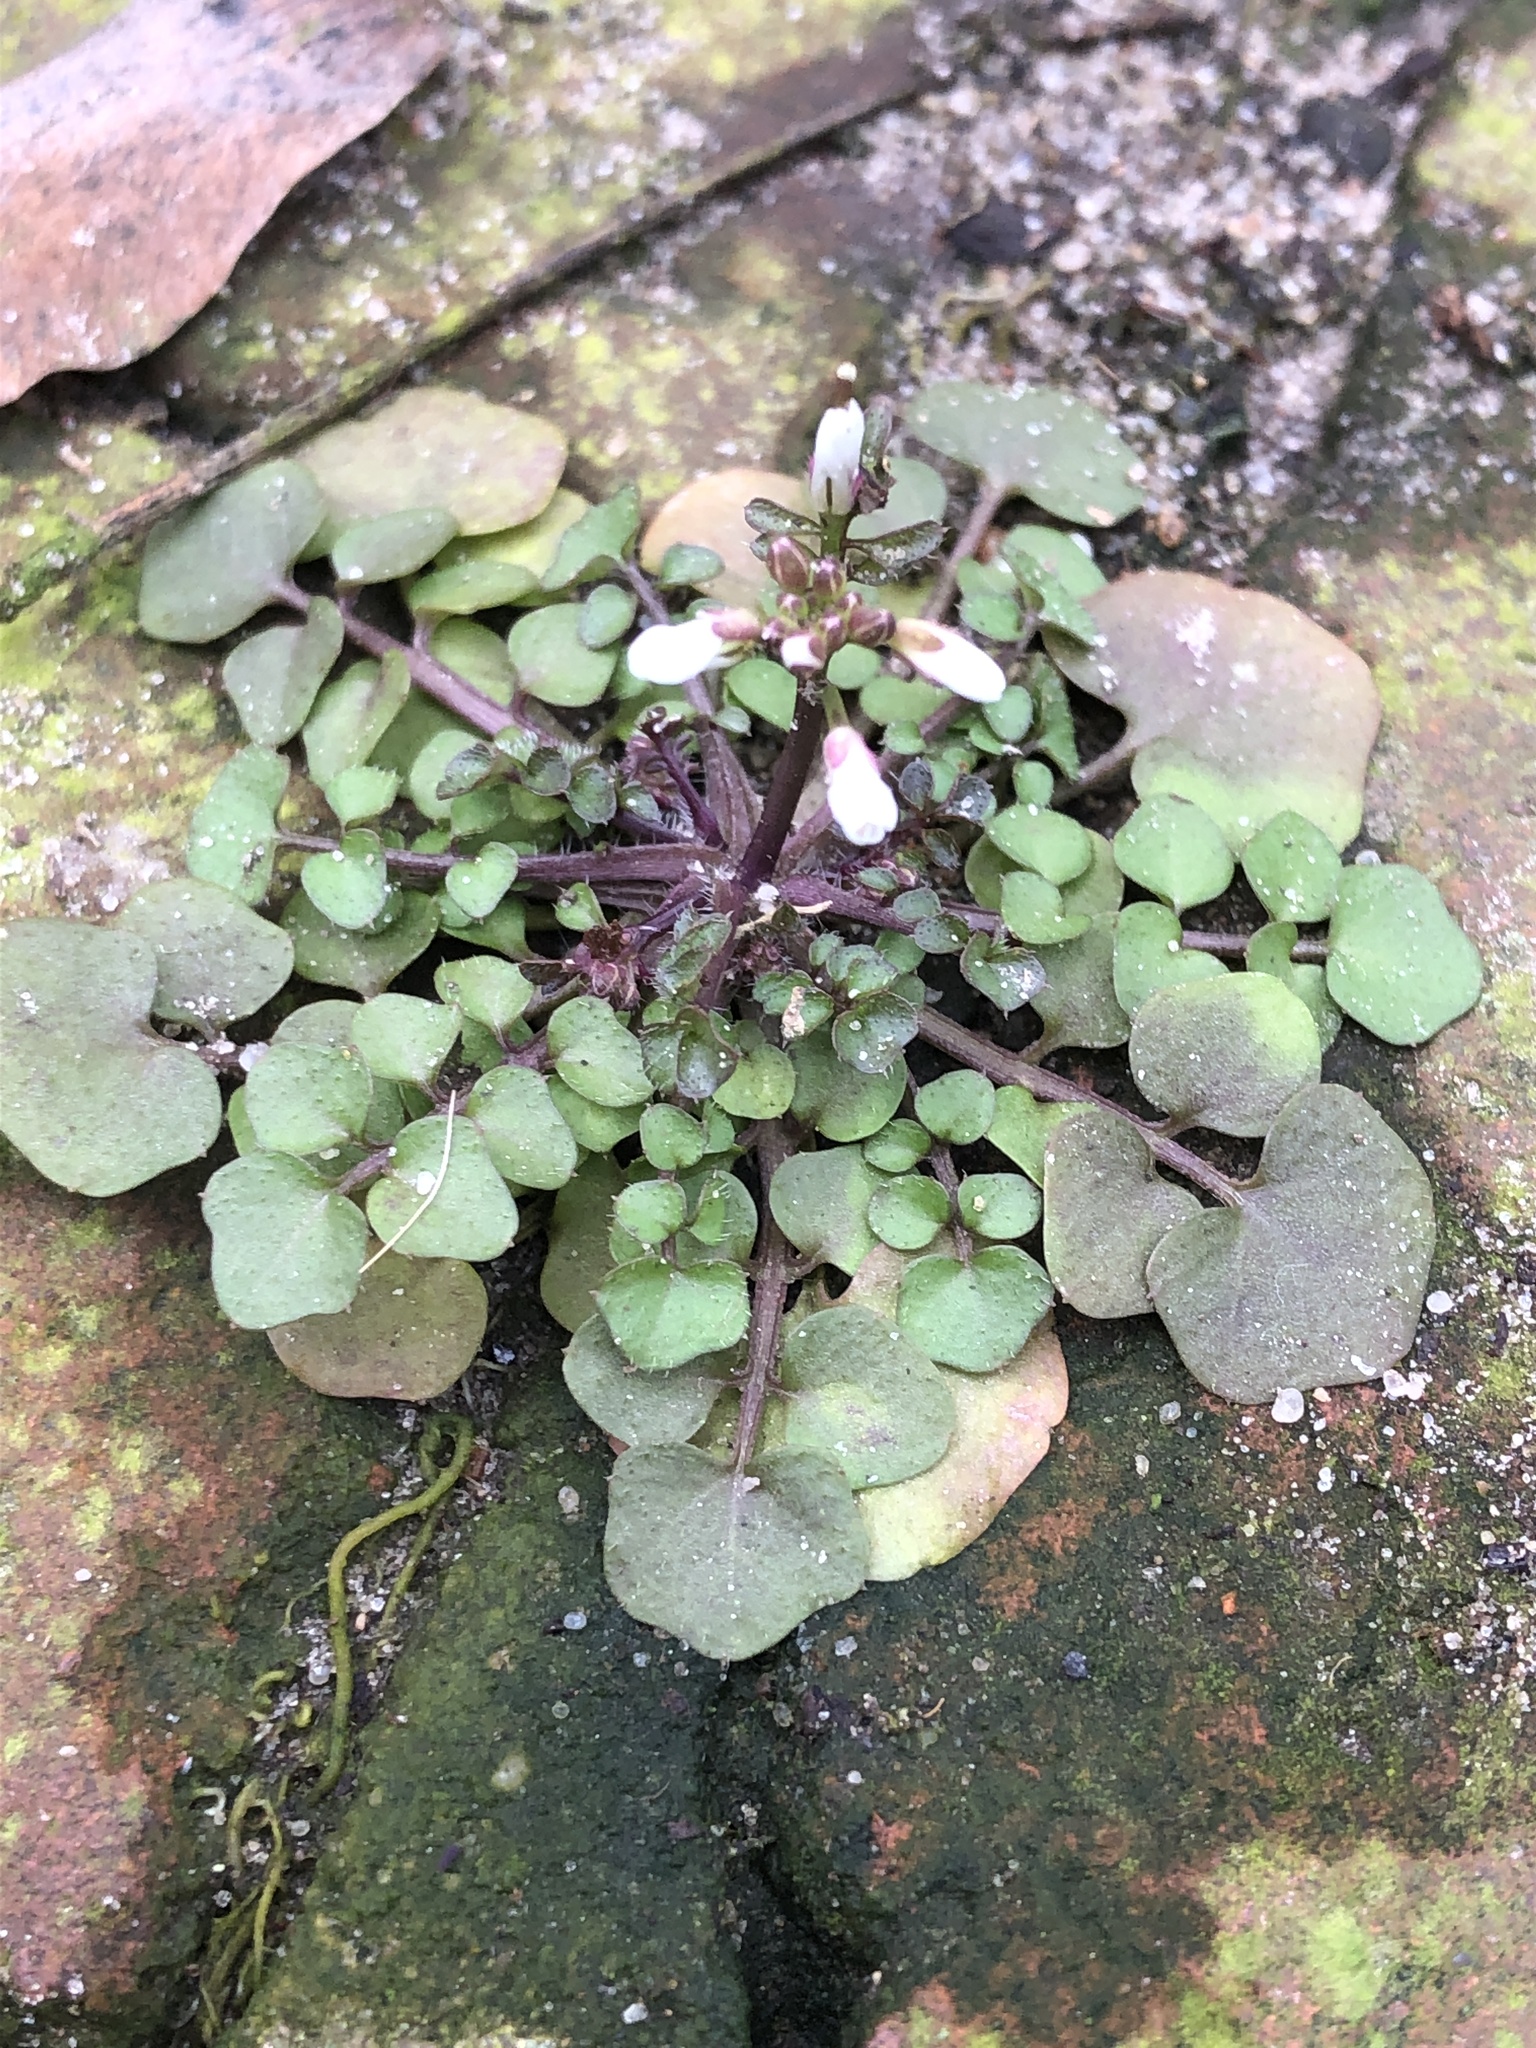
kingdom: Plantae
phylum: Tracheophyta
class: Magnoliopsida
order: Brassicales
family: Brassicaceae
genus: Cardamine
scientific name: Cardamine hirsuta
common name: Hairy bittercress
